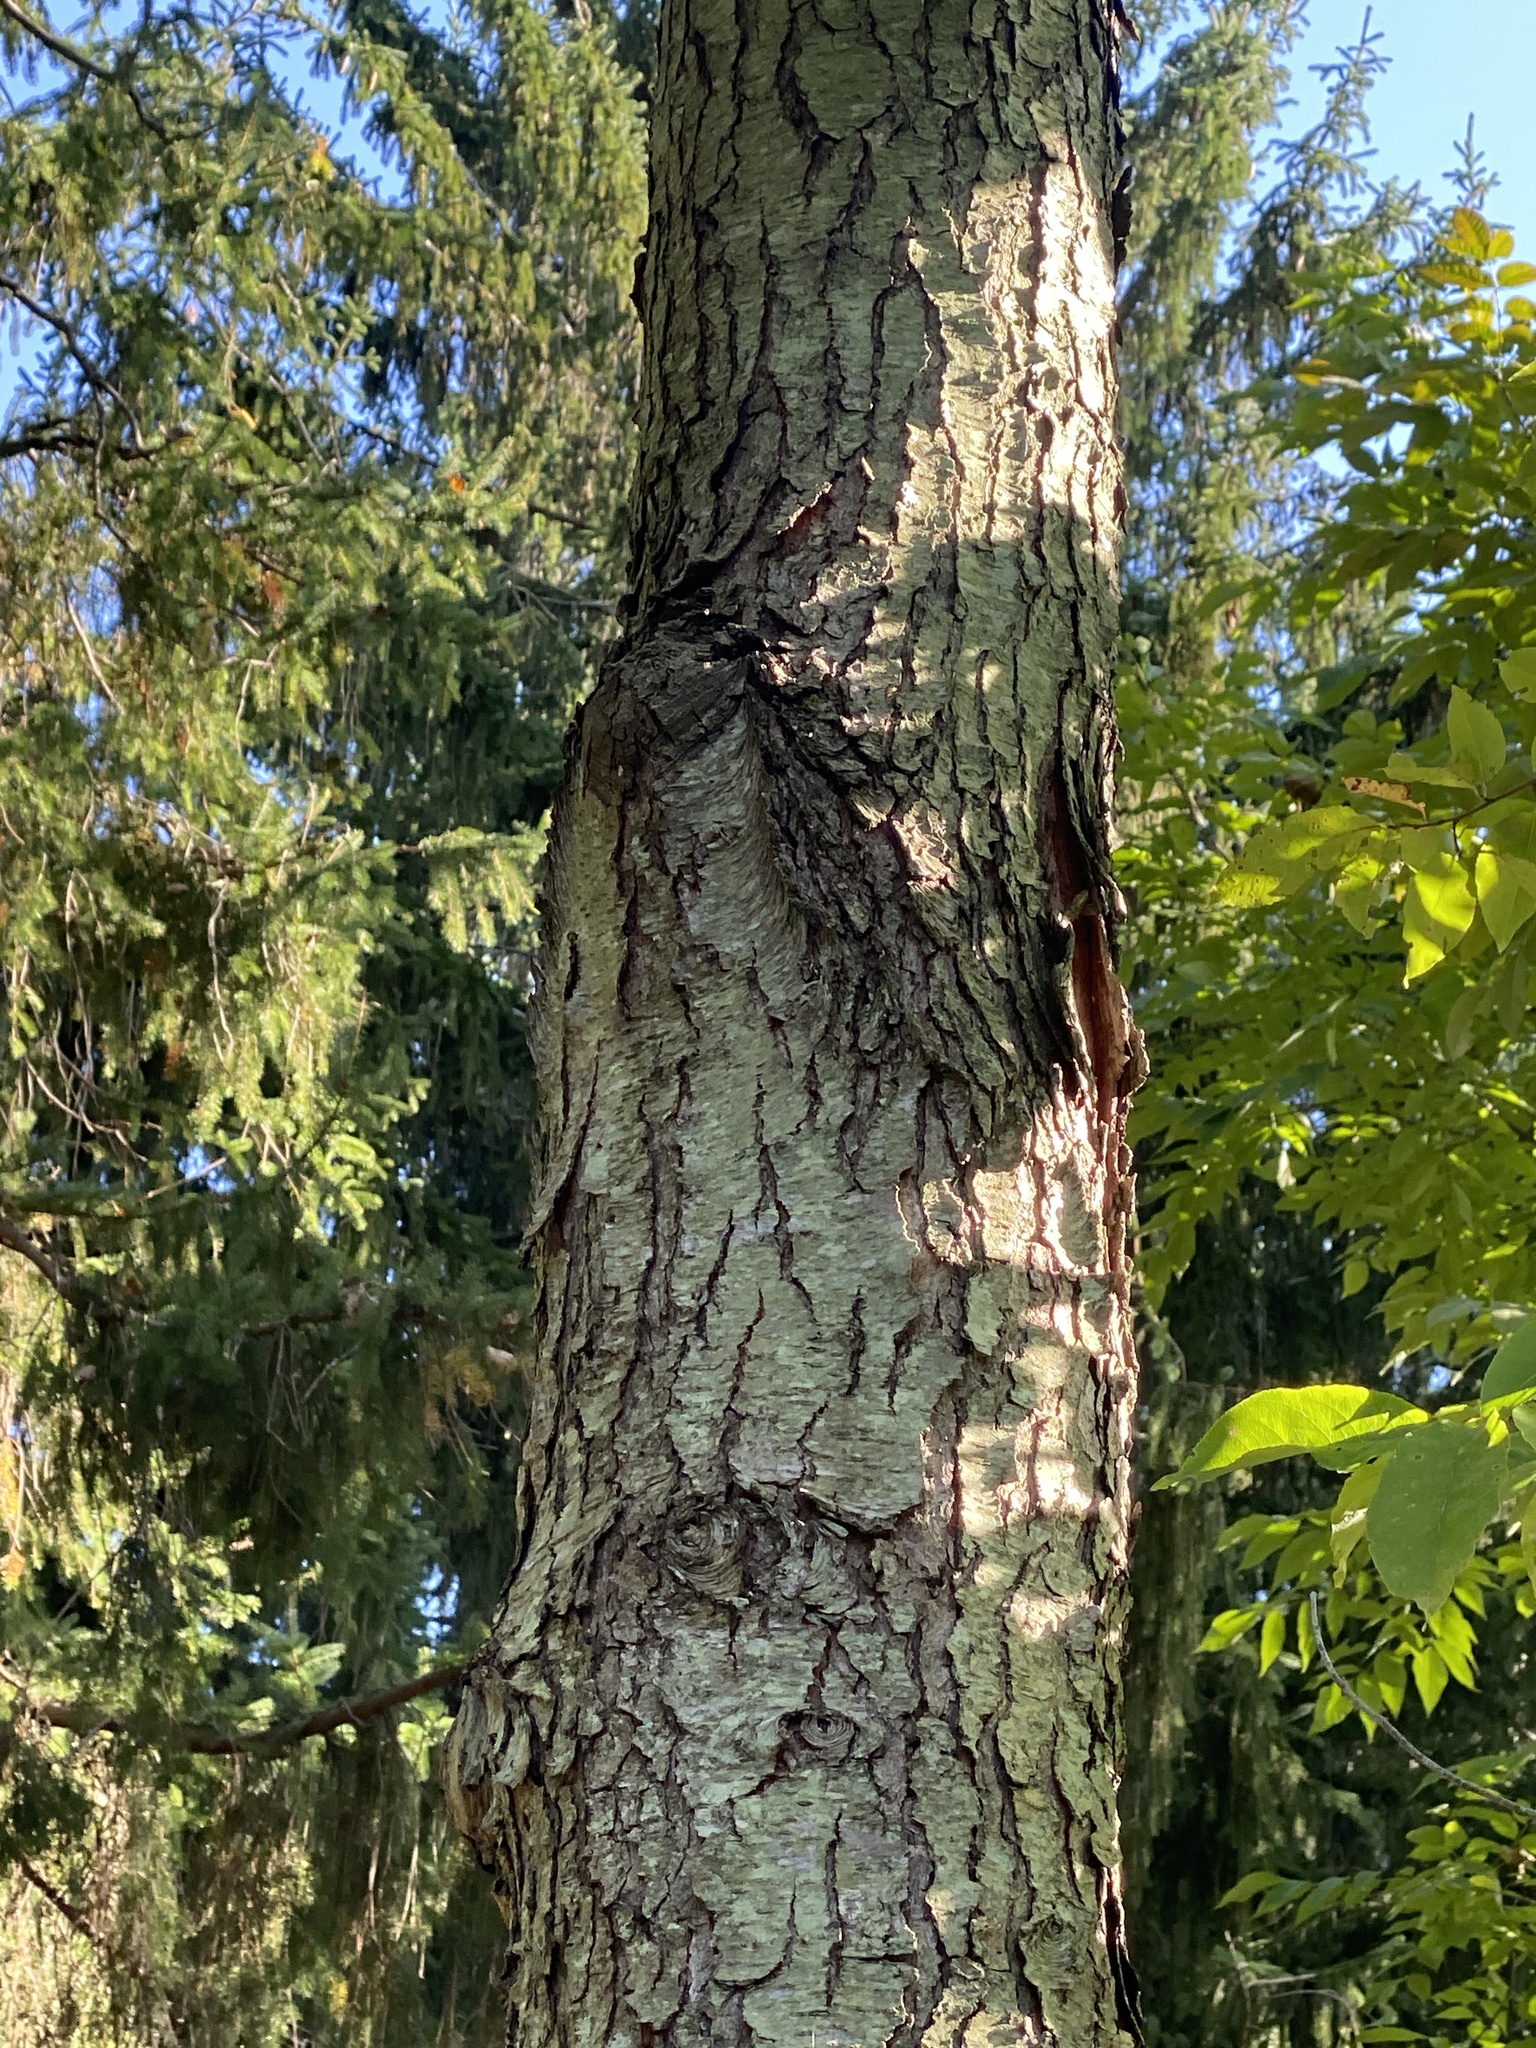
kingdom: Plantae
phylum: Tracheophyta
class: Magnoliopsida
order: Rosales
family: Rosaceae
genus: Prunus
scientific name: Prunus serotina
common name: Black cherry
